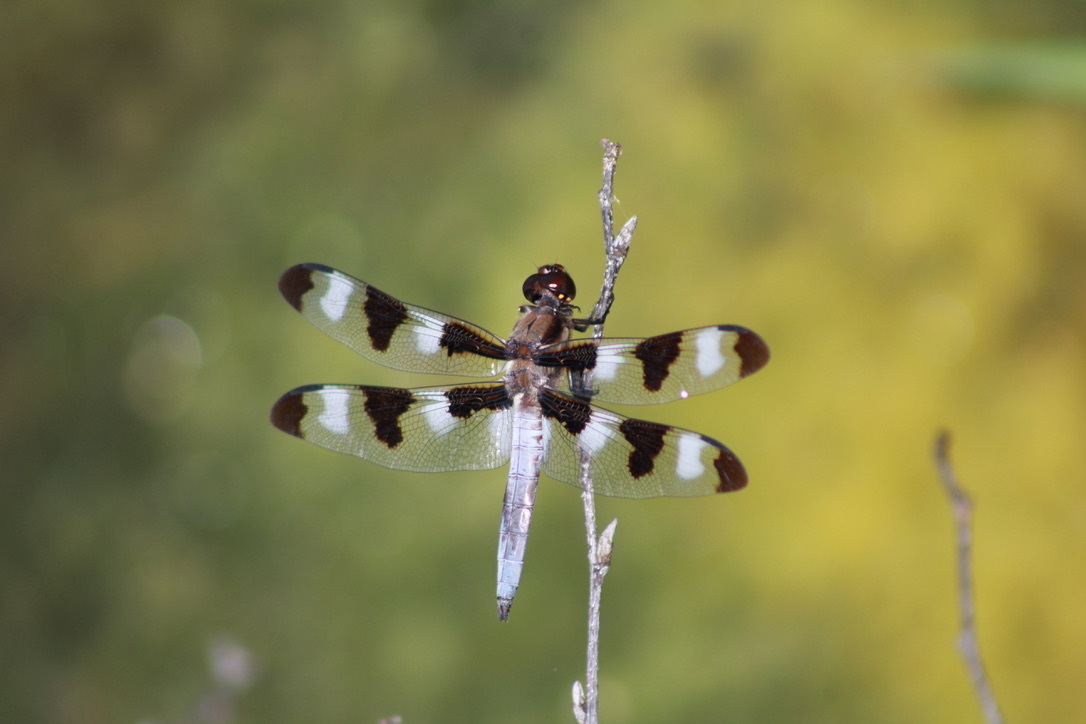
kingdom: Animalia
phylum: Arthropoda
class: Insecta
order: Odonata
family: Libellulidae
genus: Libellula
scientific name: Libellula pulchella
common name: Twelve-spotted skimmer
